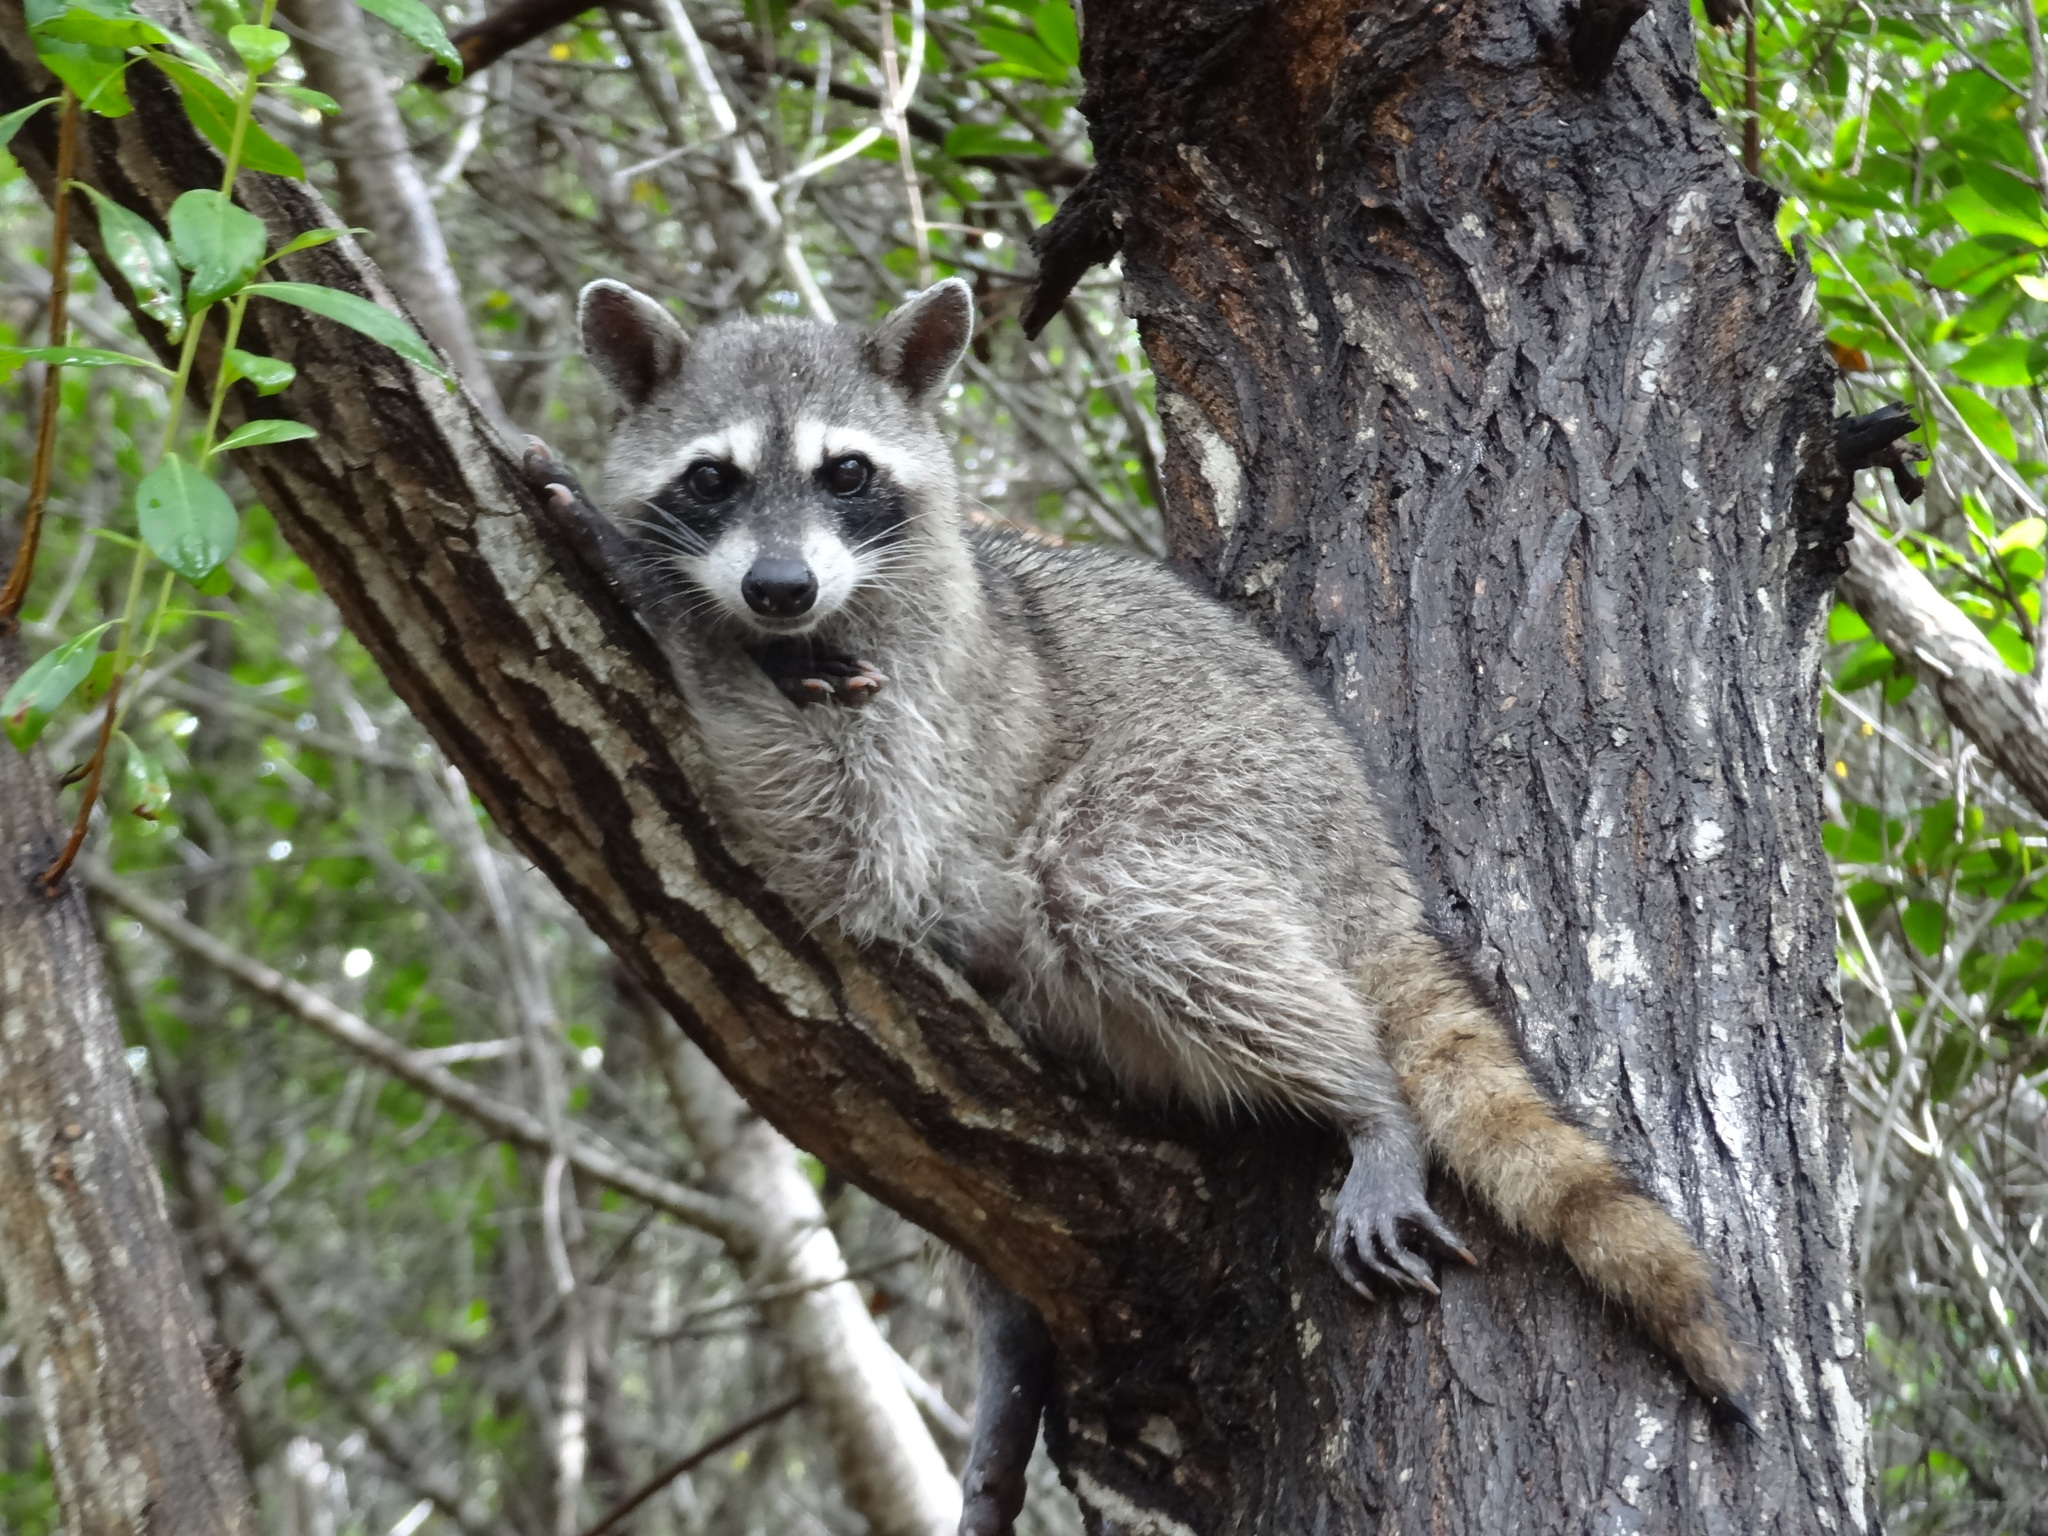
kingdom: Animalia
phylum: Chordata
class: Mammalia
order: Carnivora
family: Procyonidae
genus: Procyon
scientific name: Procyon lotor
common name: Raccoon
